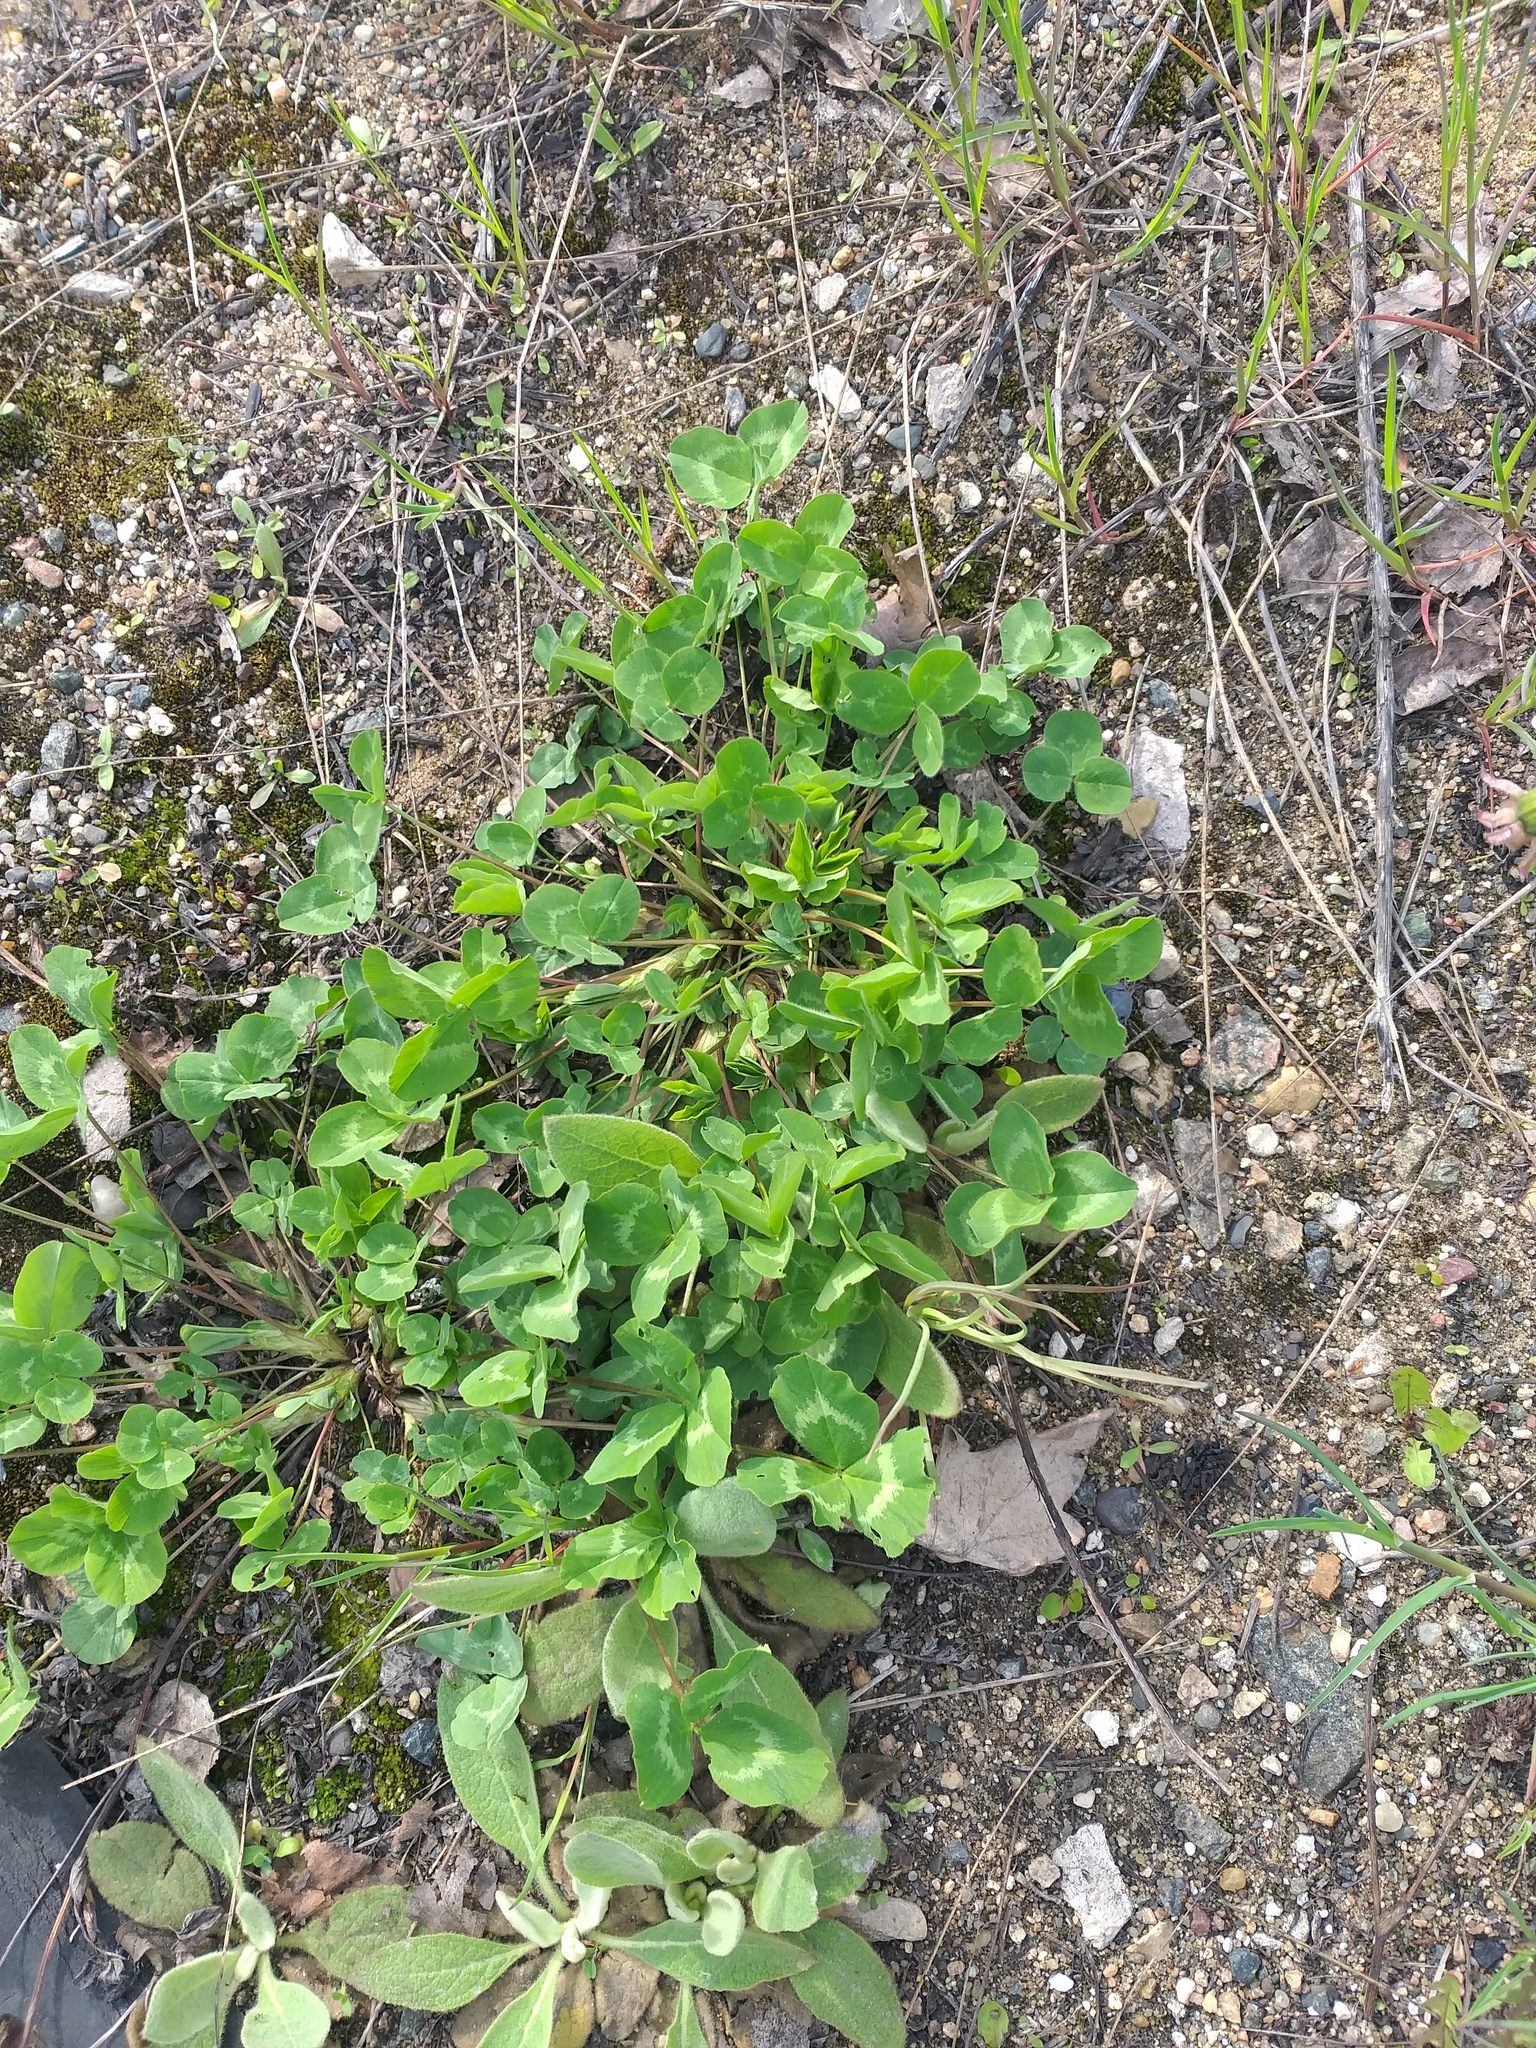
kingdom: Plantae
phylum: Tracheophyta
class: Magnoliopsida
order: Fabales
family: Fabaceae
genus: Trifolium
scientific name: Trifolium pratense
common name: Red clover
